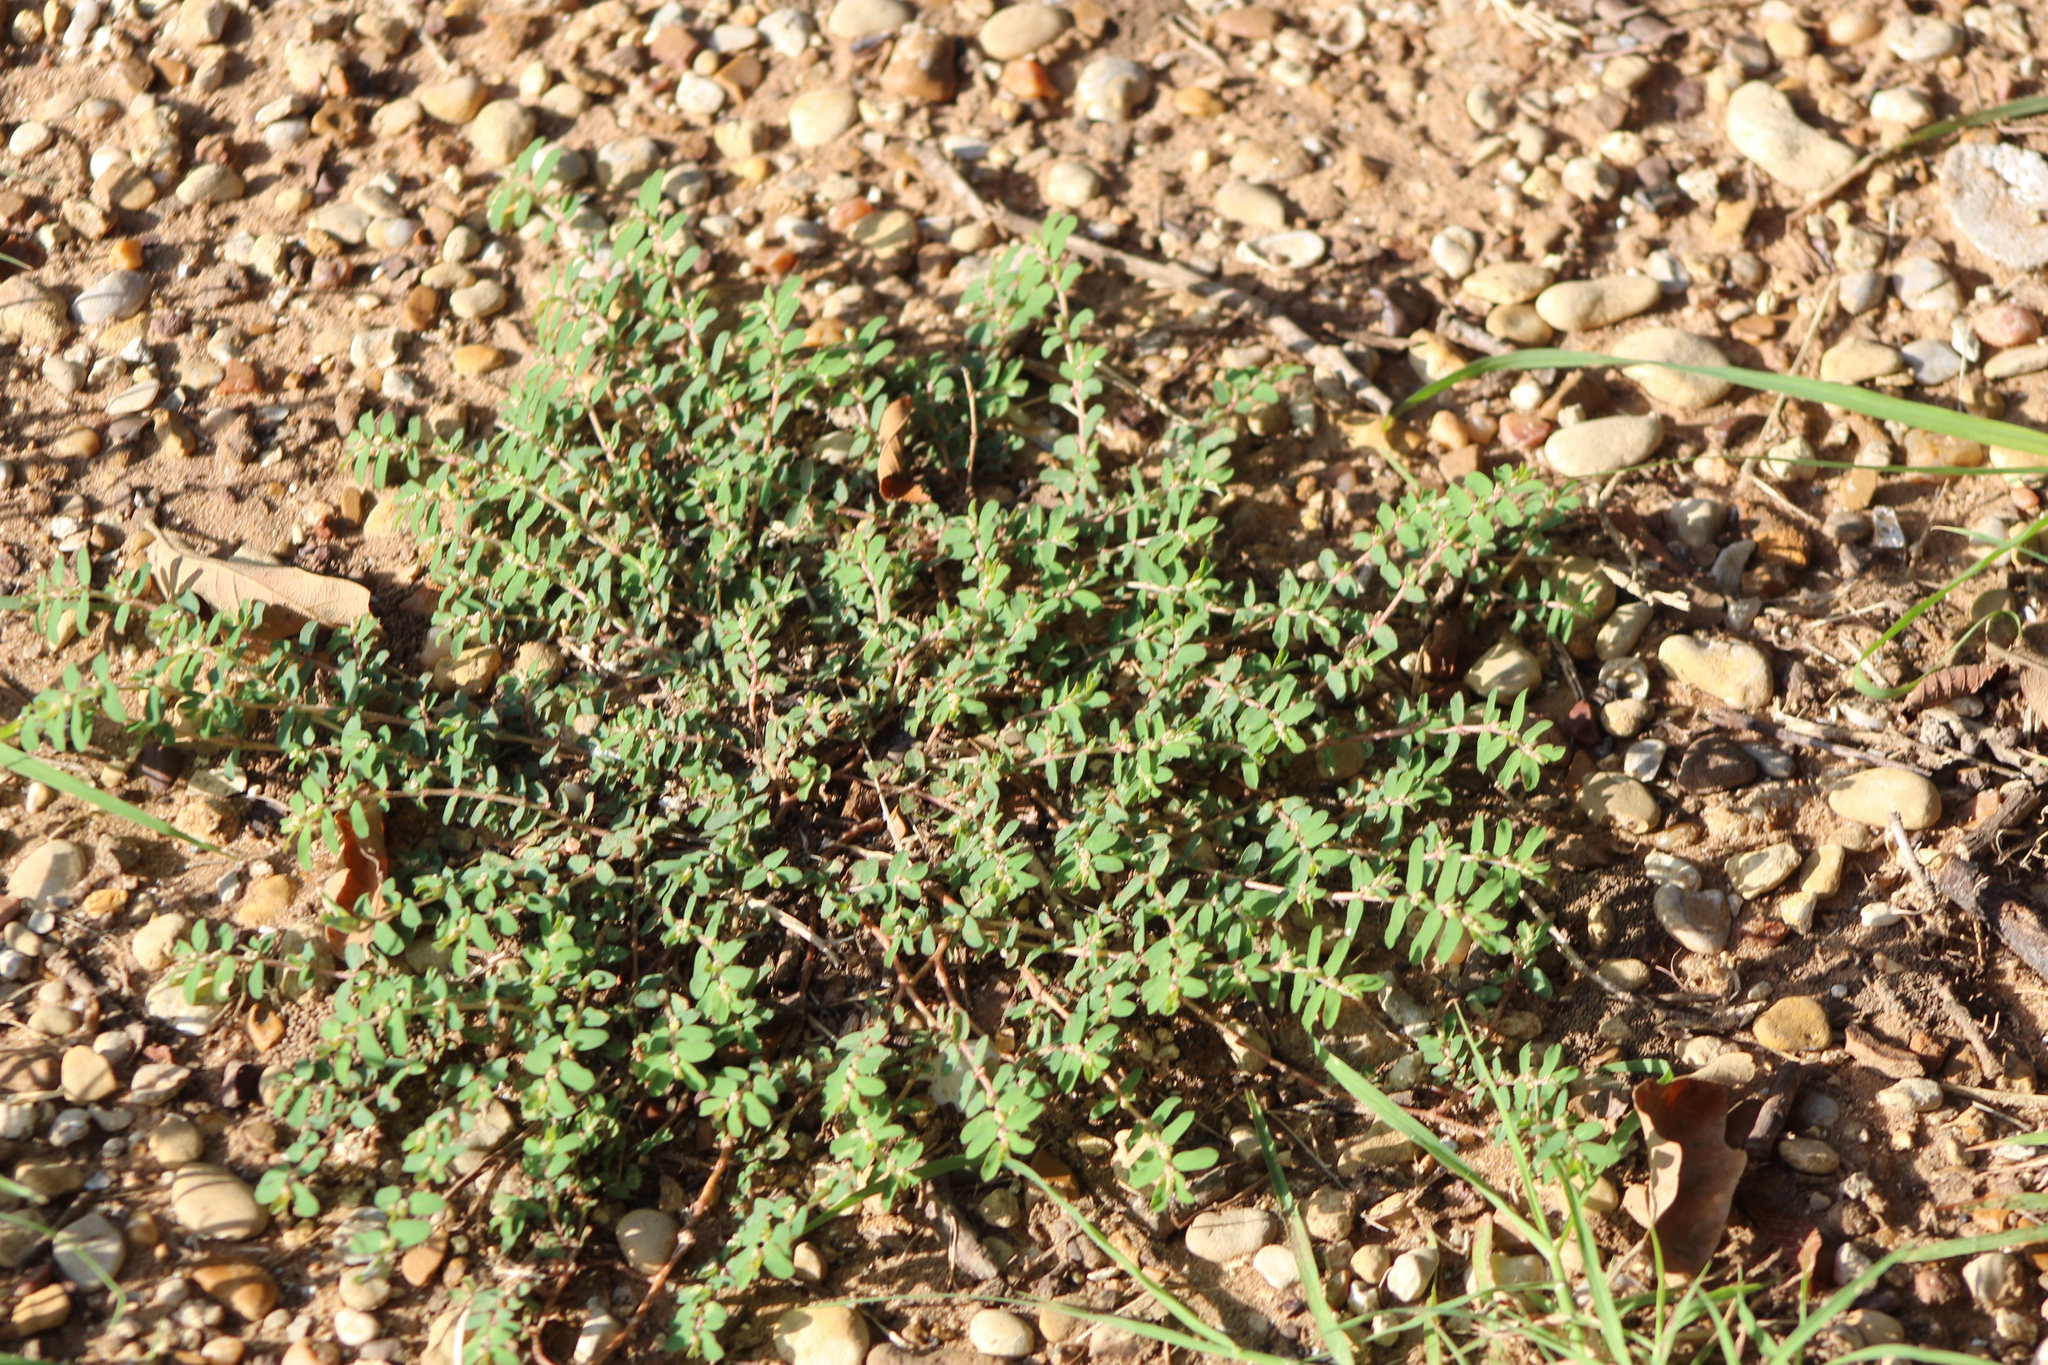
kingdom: Plantae
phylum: Tracheophyta
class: Magnoliopsida
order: Malpighiales
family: Euphorbiaceae
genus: Euphorbia
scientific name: Euphorbia maculata
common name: Spotted spurge
